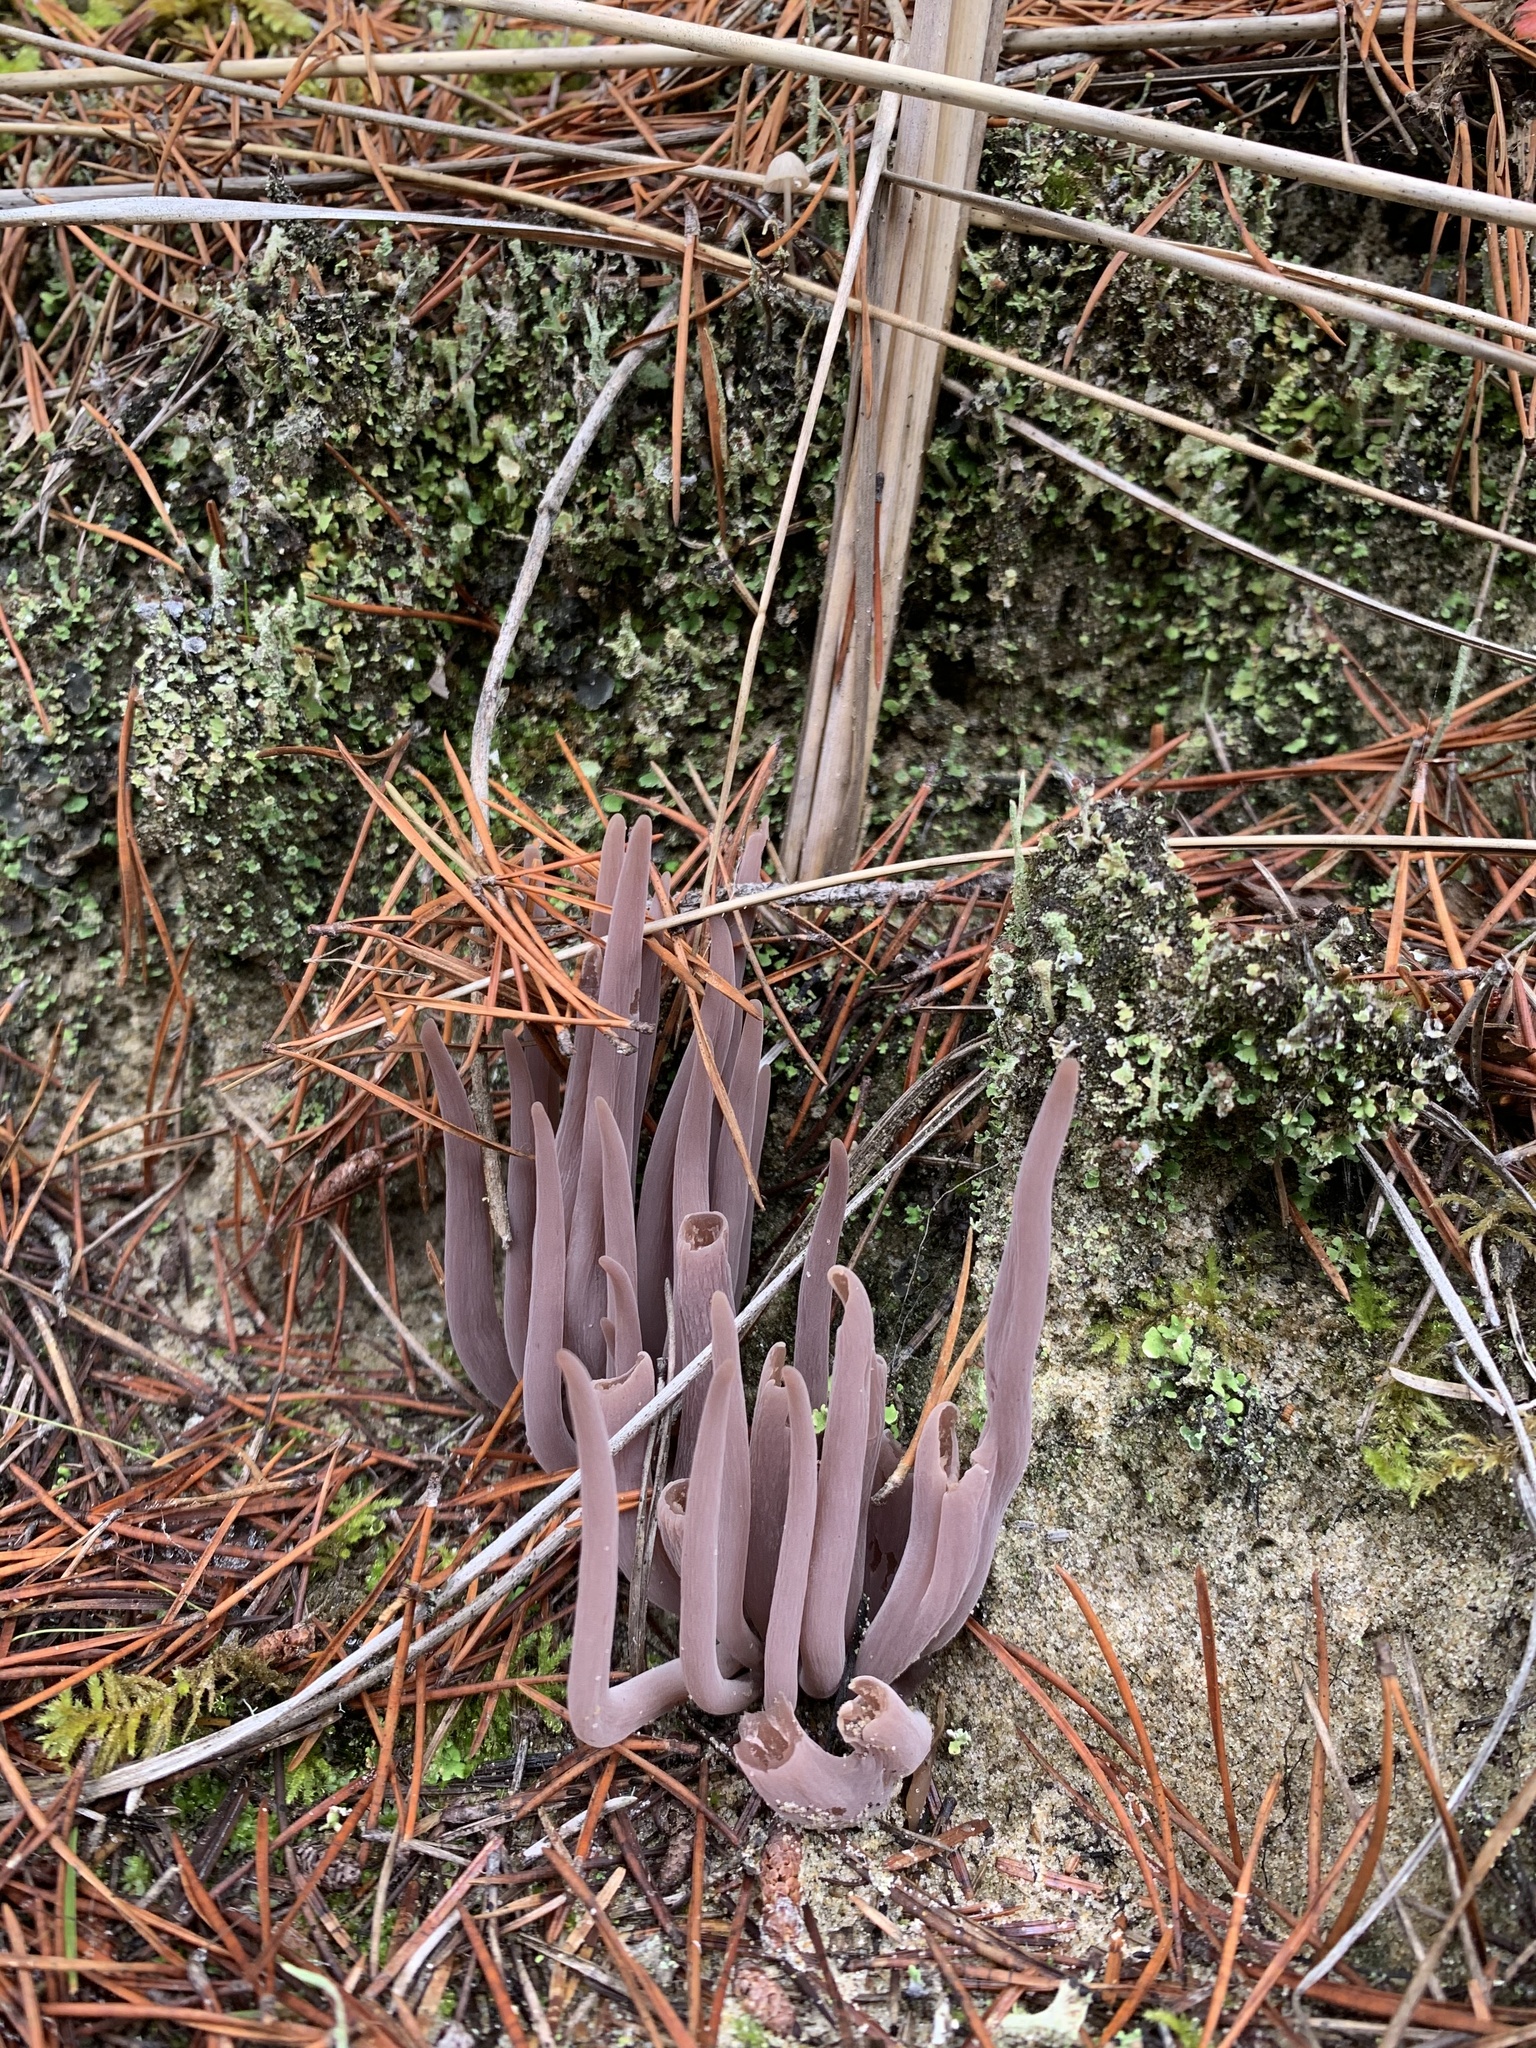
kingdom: Fungi
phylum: Basidiomycota
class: Agaricomycetes
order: Hymenochaetales
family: Rickenellaceae
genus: Alloclavaria
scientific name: Alloclavaria purpurea
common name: Purple spindles
